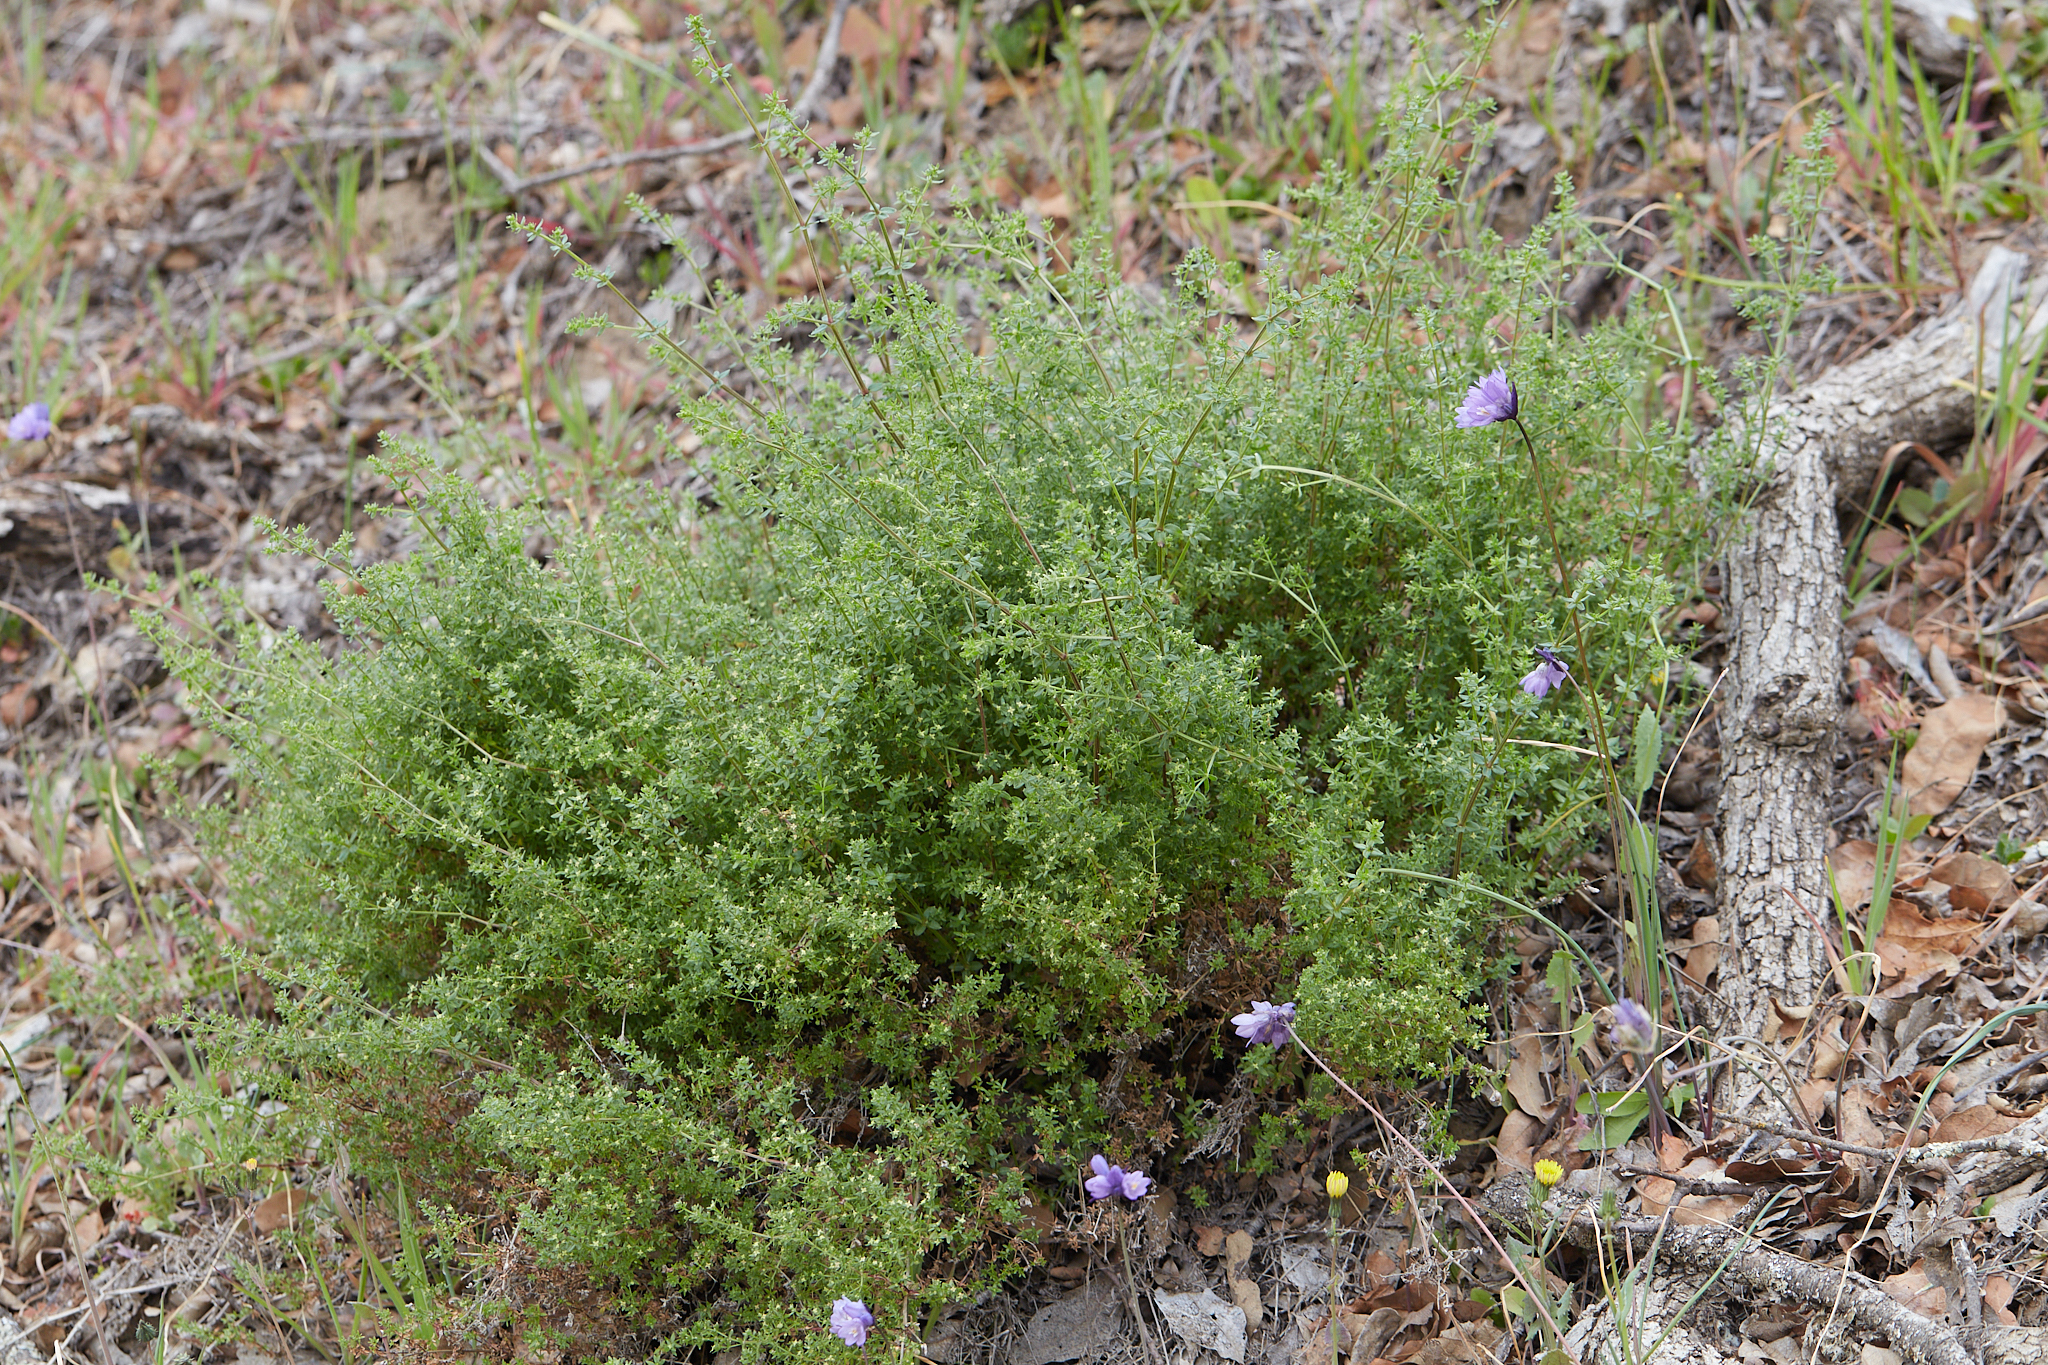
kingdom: Plantae
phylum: Tracheophyta
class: Magnoliopsida
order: Gentianales
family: Rubiaceae
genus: Galium
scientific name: Galium porrigens
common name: Climbing bedstraw
